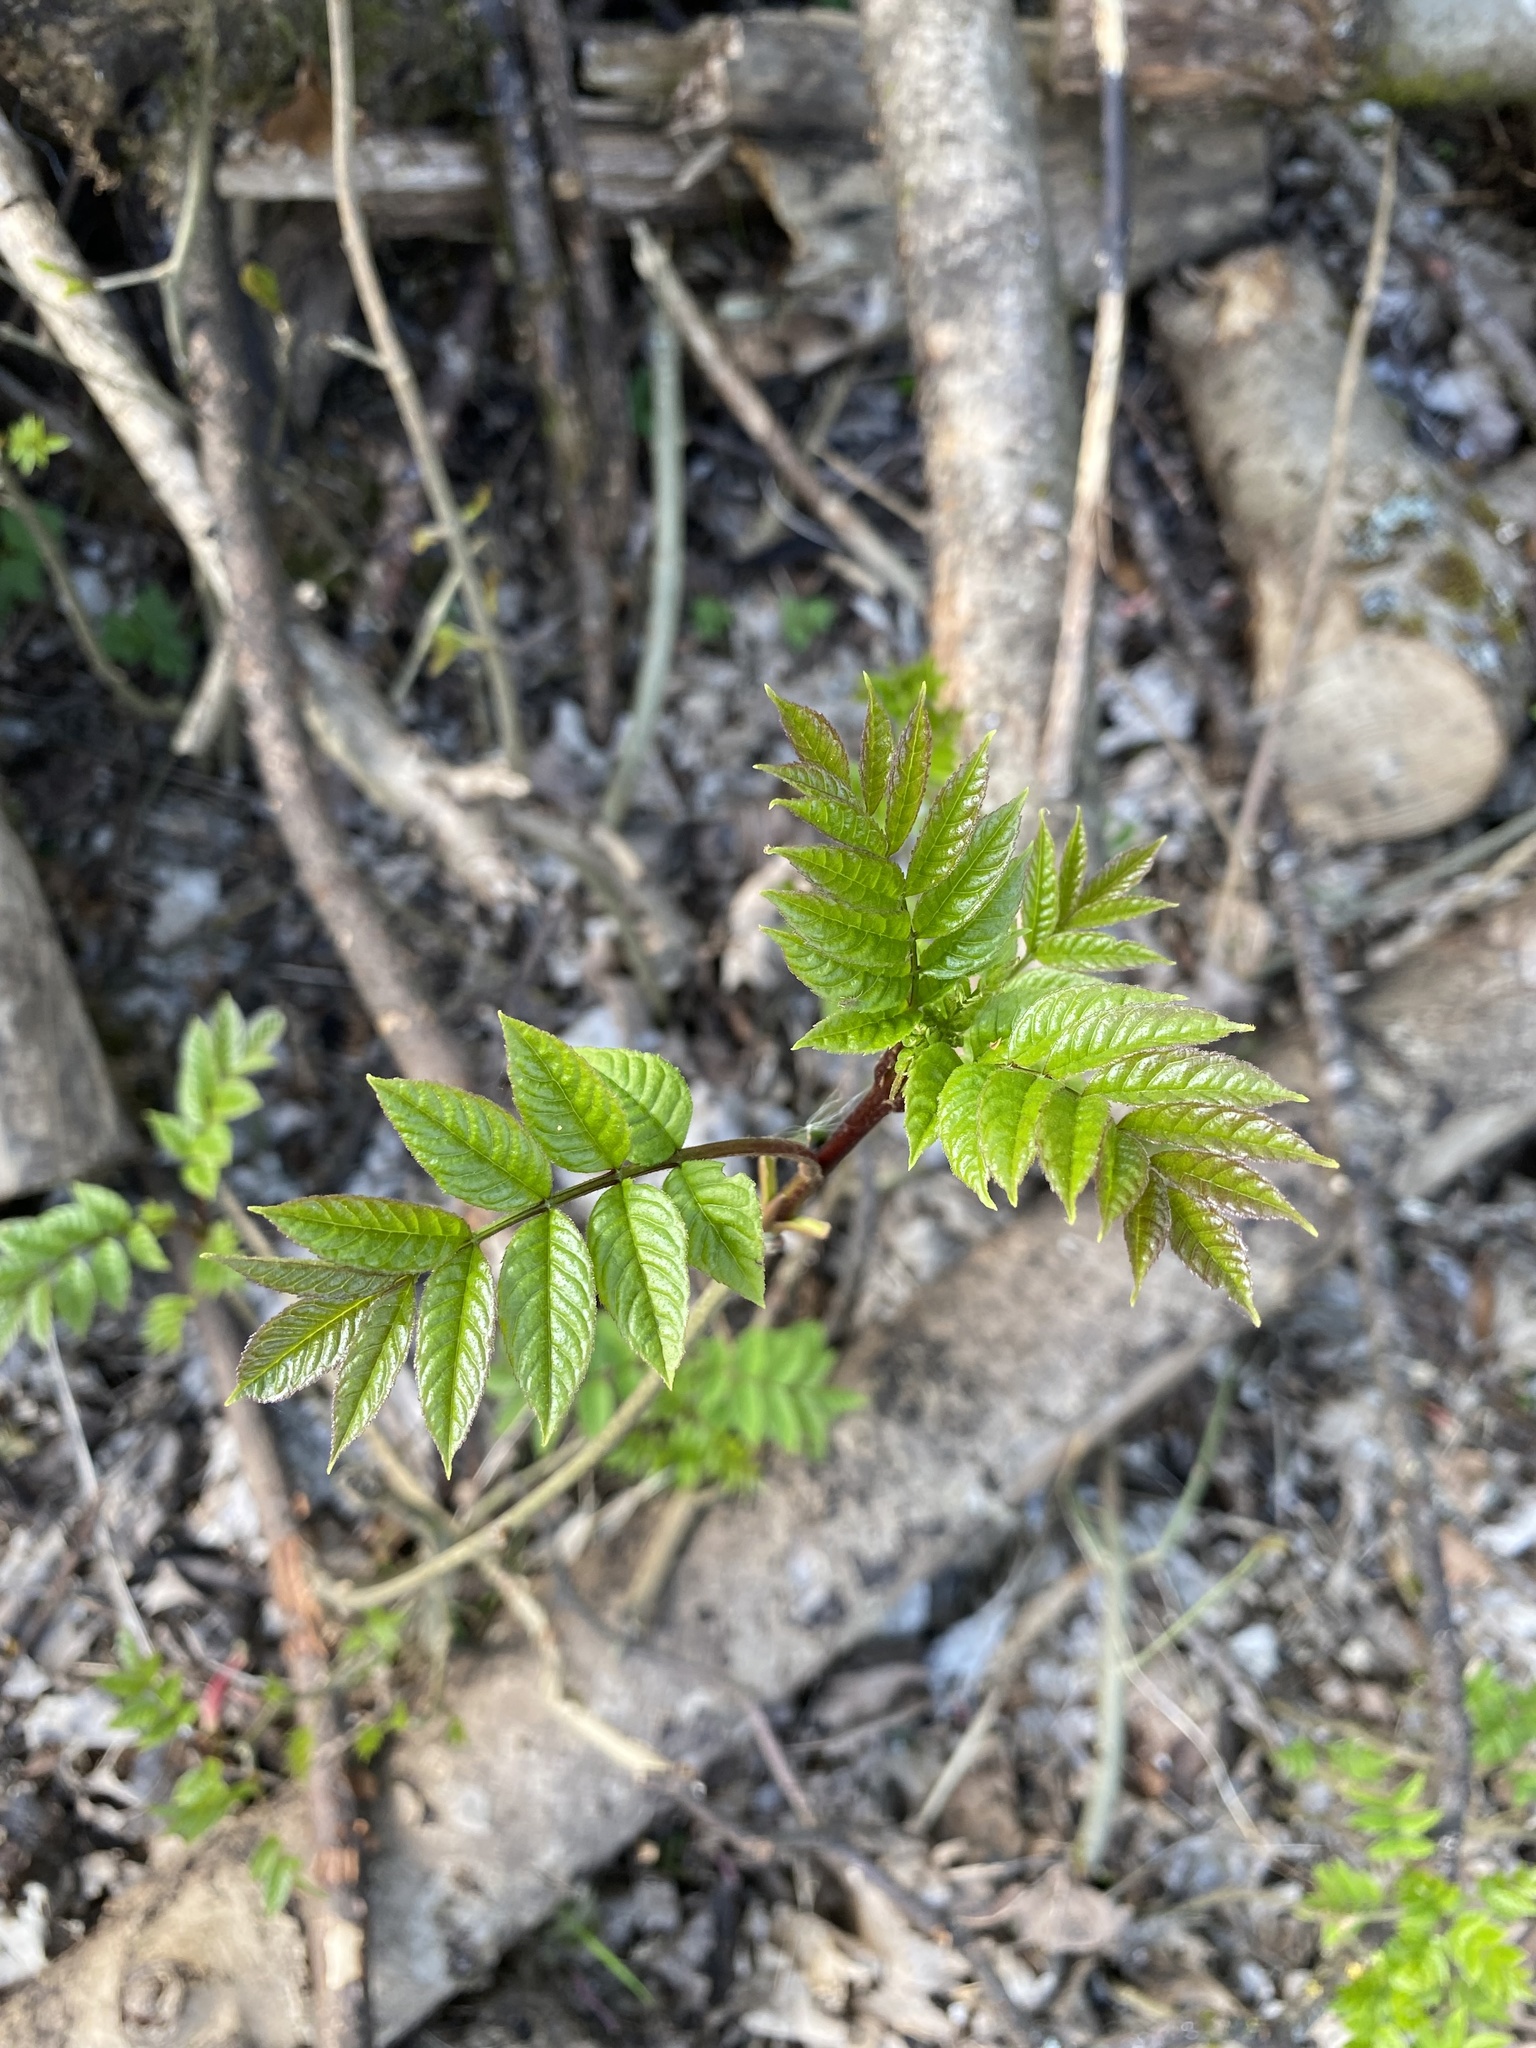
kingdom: Plantae
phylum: Tracheophyta
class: Magnoliopsida
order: Lamiales
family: Oleaceae
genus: Fraxinus
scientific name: Fraxinus excelsior
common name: European ash
